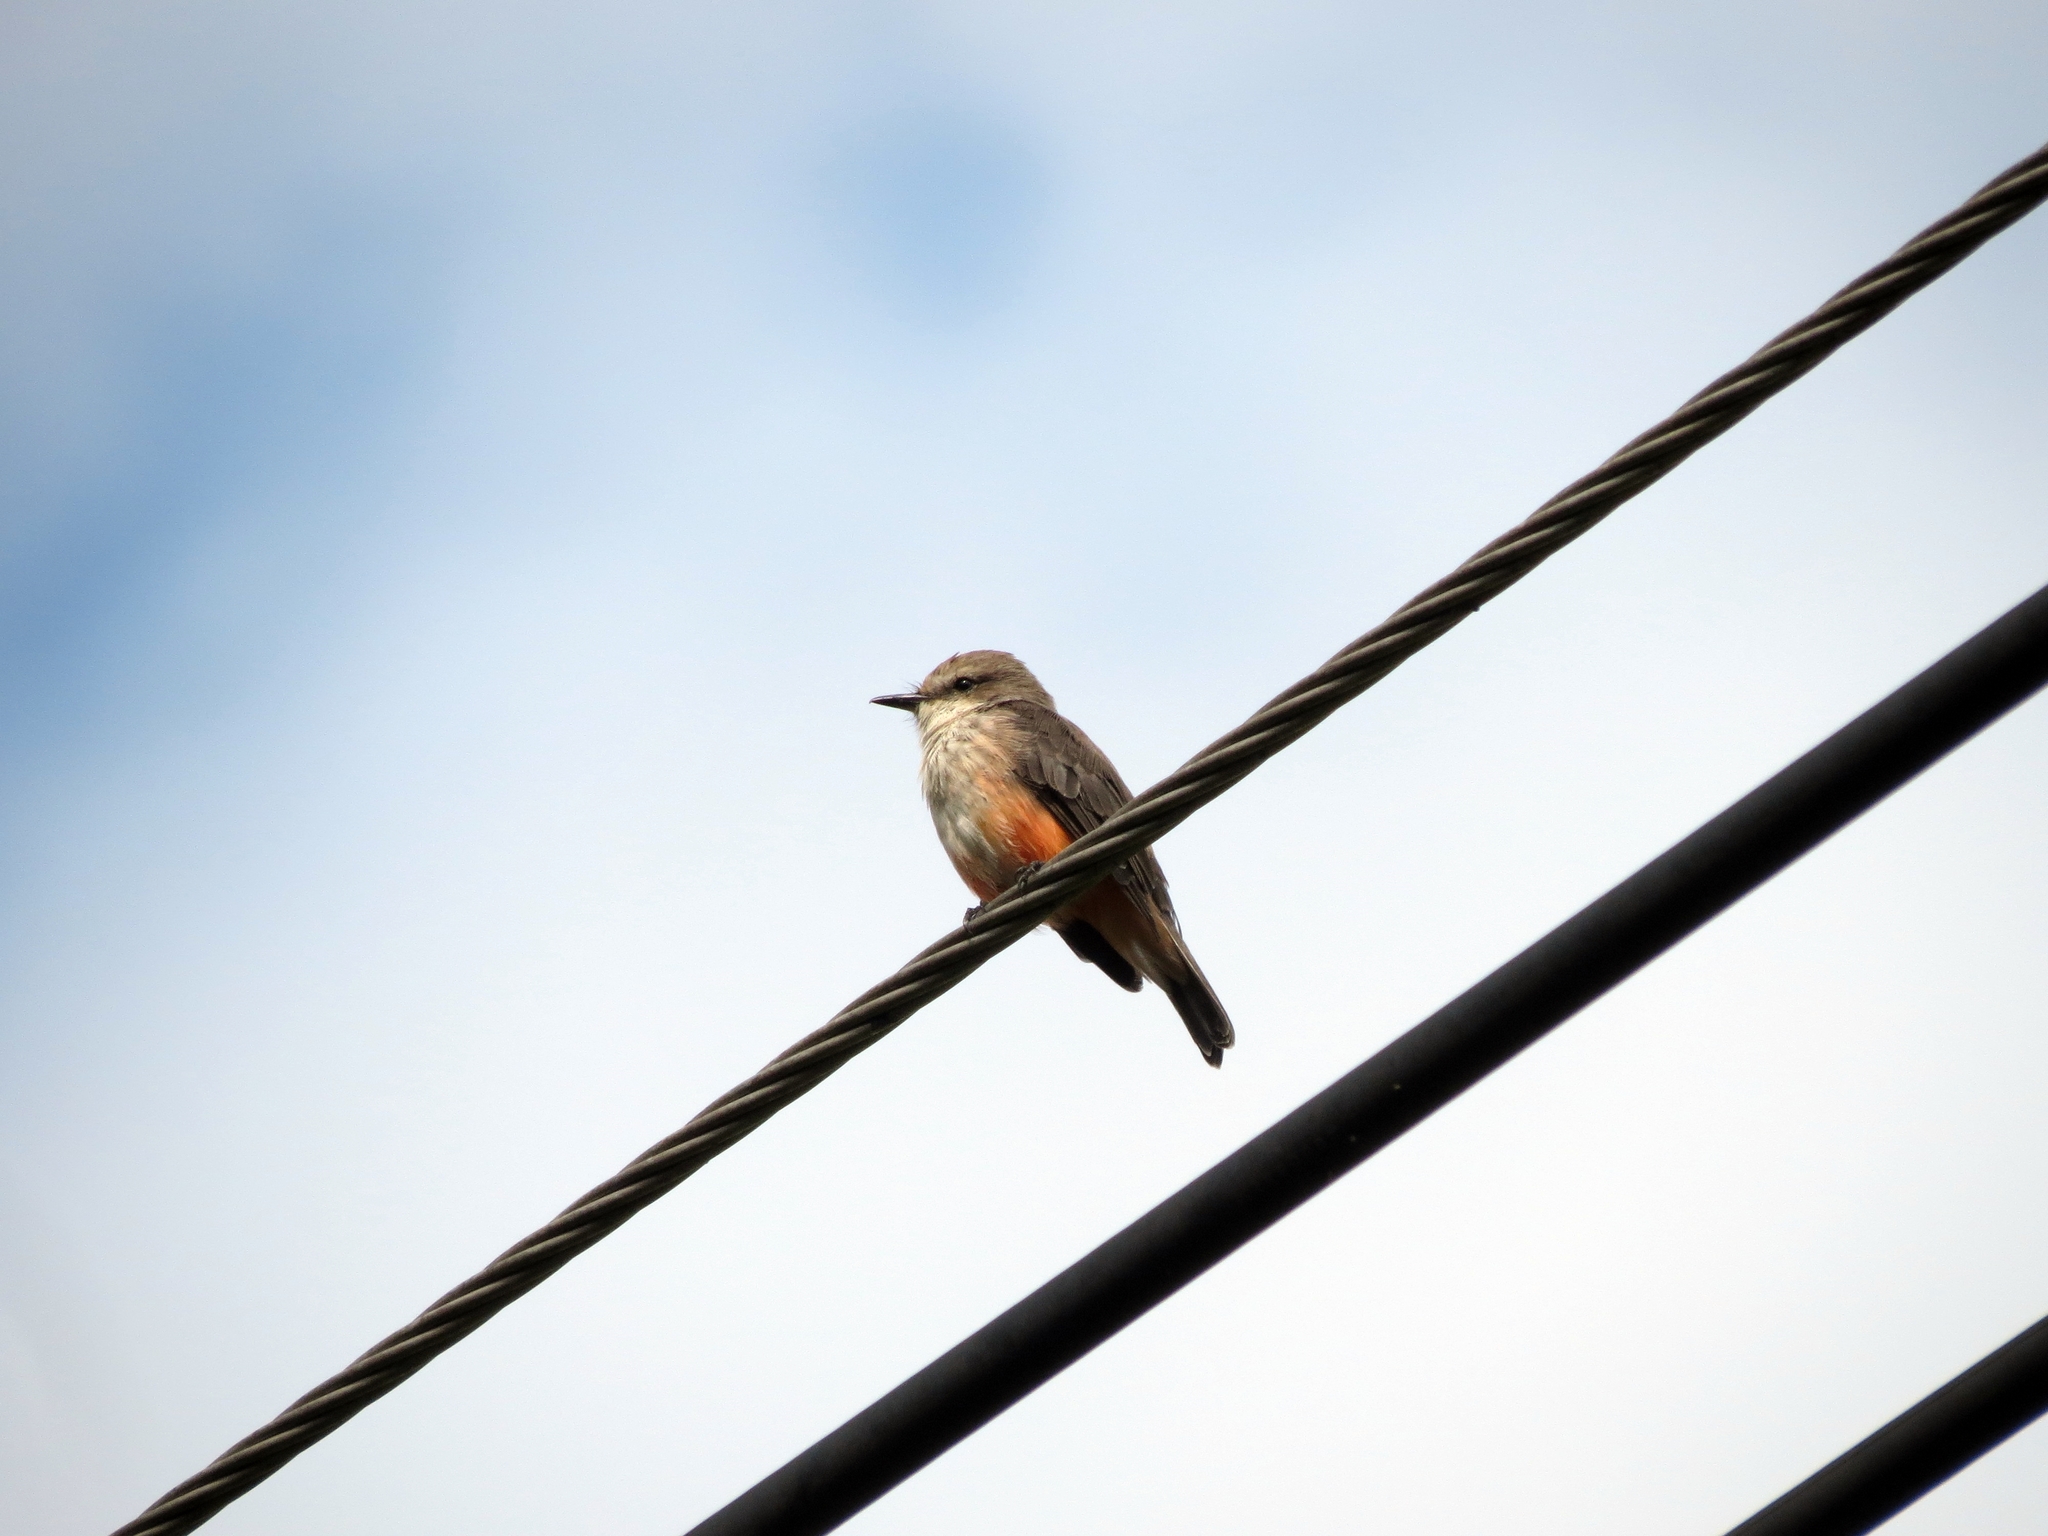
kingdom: Animalia
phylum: Chordata
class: Aves
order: Passeriformes
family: Tyrannidae
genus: Pyrocephalus
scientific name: Pyrocephalus rubinus
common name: Vermilion flycatcher
